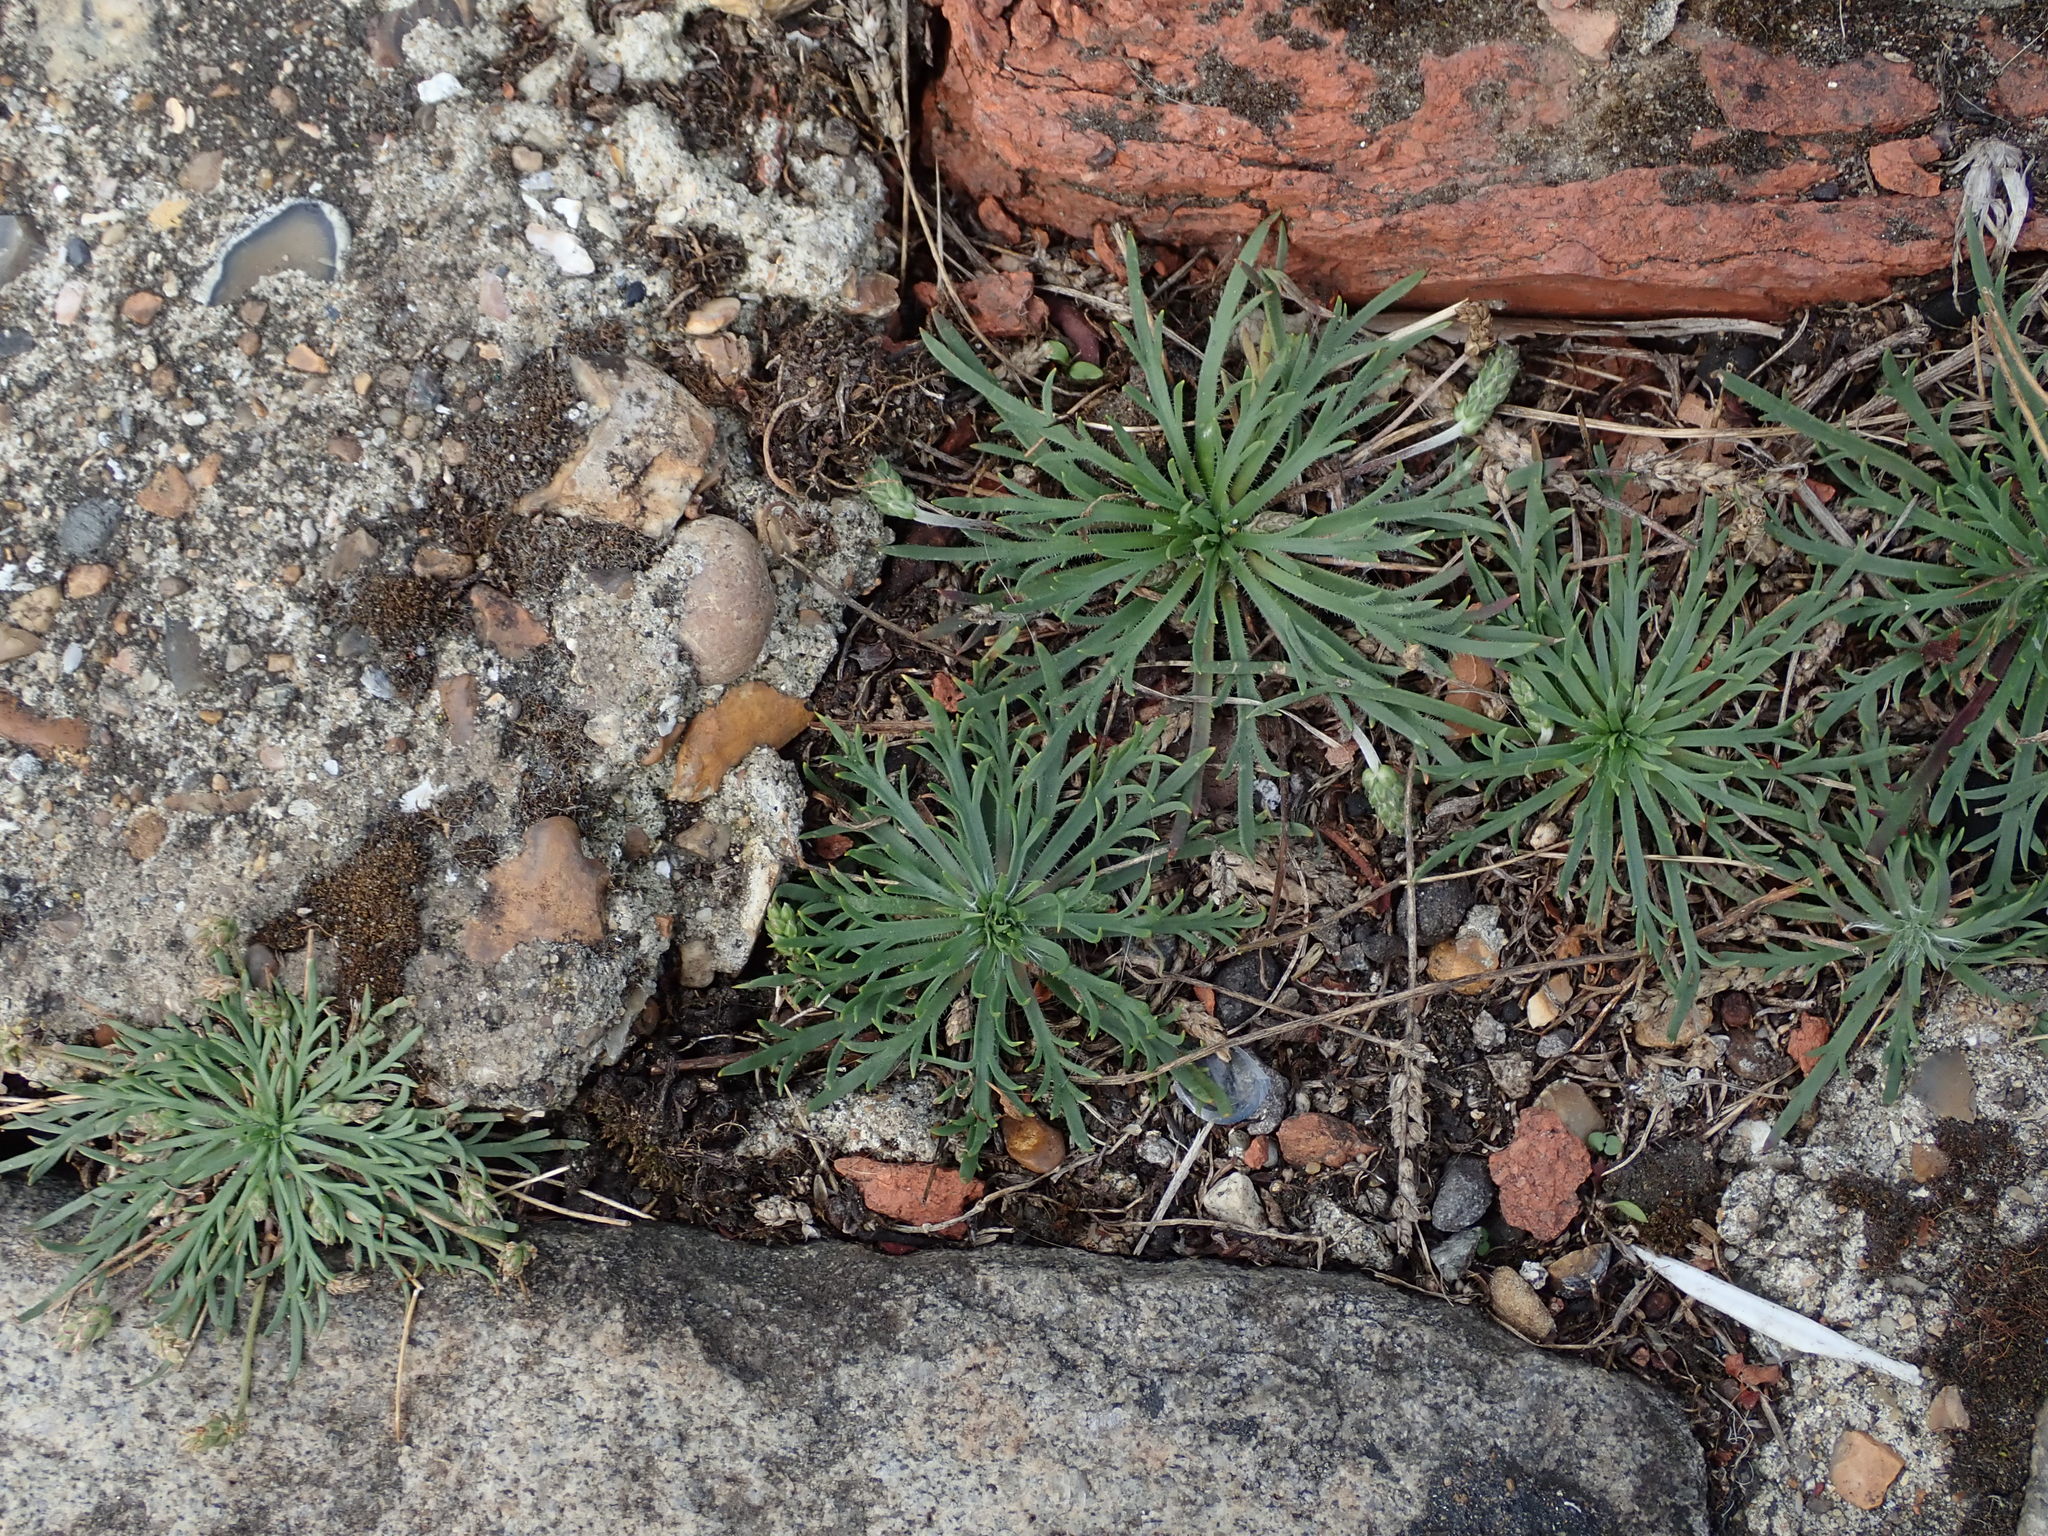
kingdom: Plantae
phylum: Tracheophyta
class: Magnoliopsida
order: Lamiales
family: Plantaginaceae
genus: Plantago
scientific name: Plantago coronopus
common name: Buck's-horn plantain
